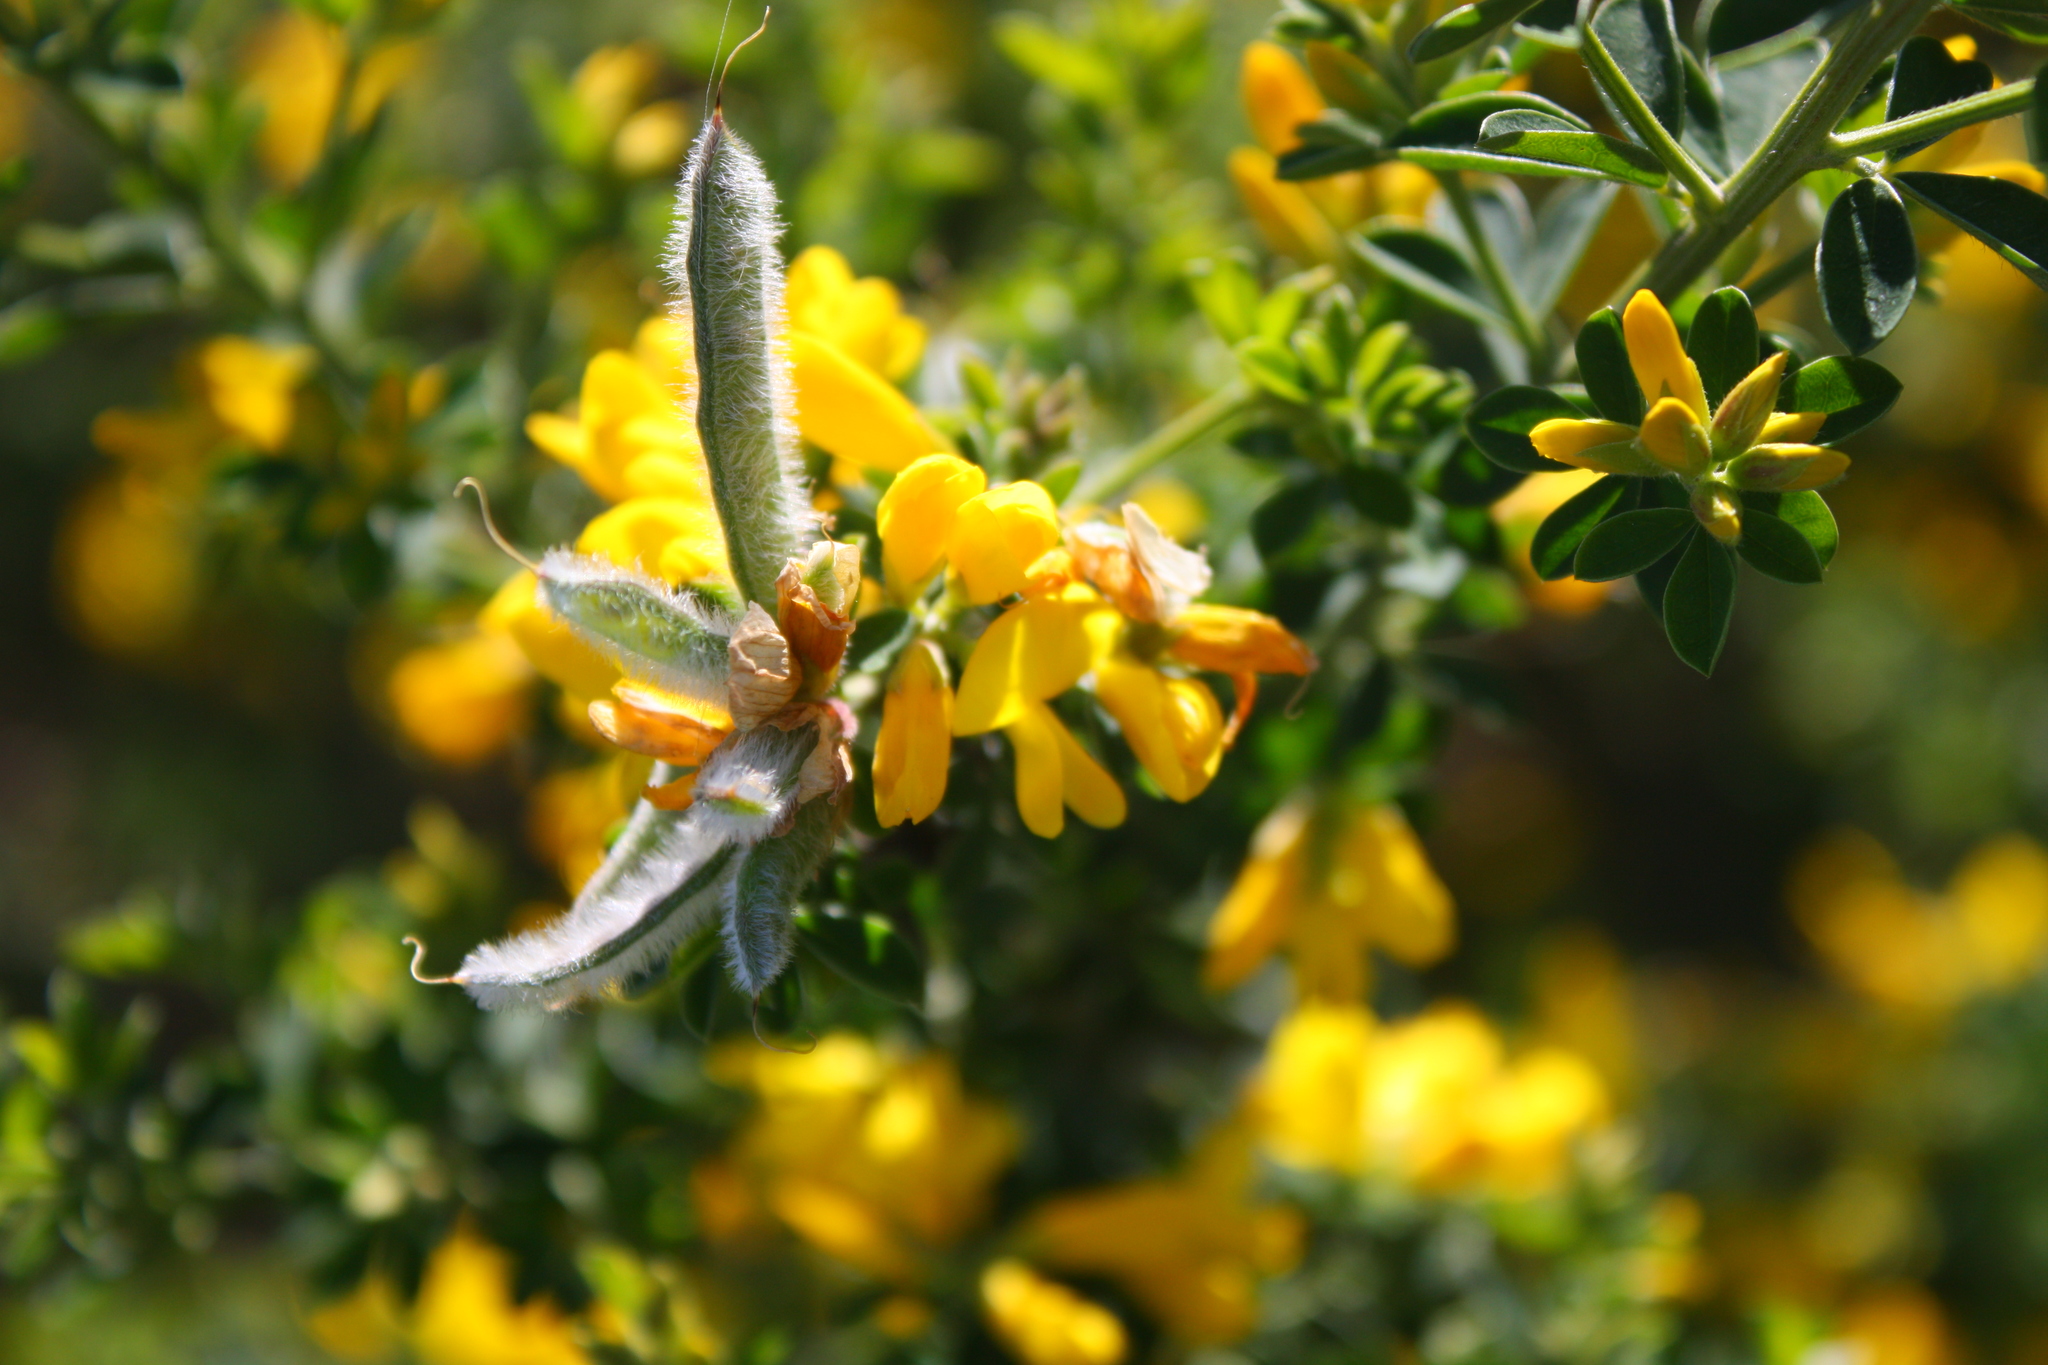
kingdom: Plantae
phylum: Tracheophyta
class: Magnoliopsida
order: Fabales
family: Fabaceae
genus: Genista
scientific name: Genista monspessulana
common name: Montpellier broom
